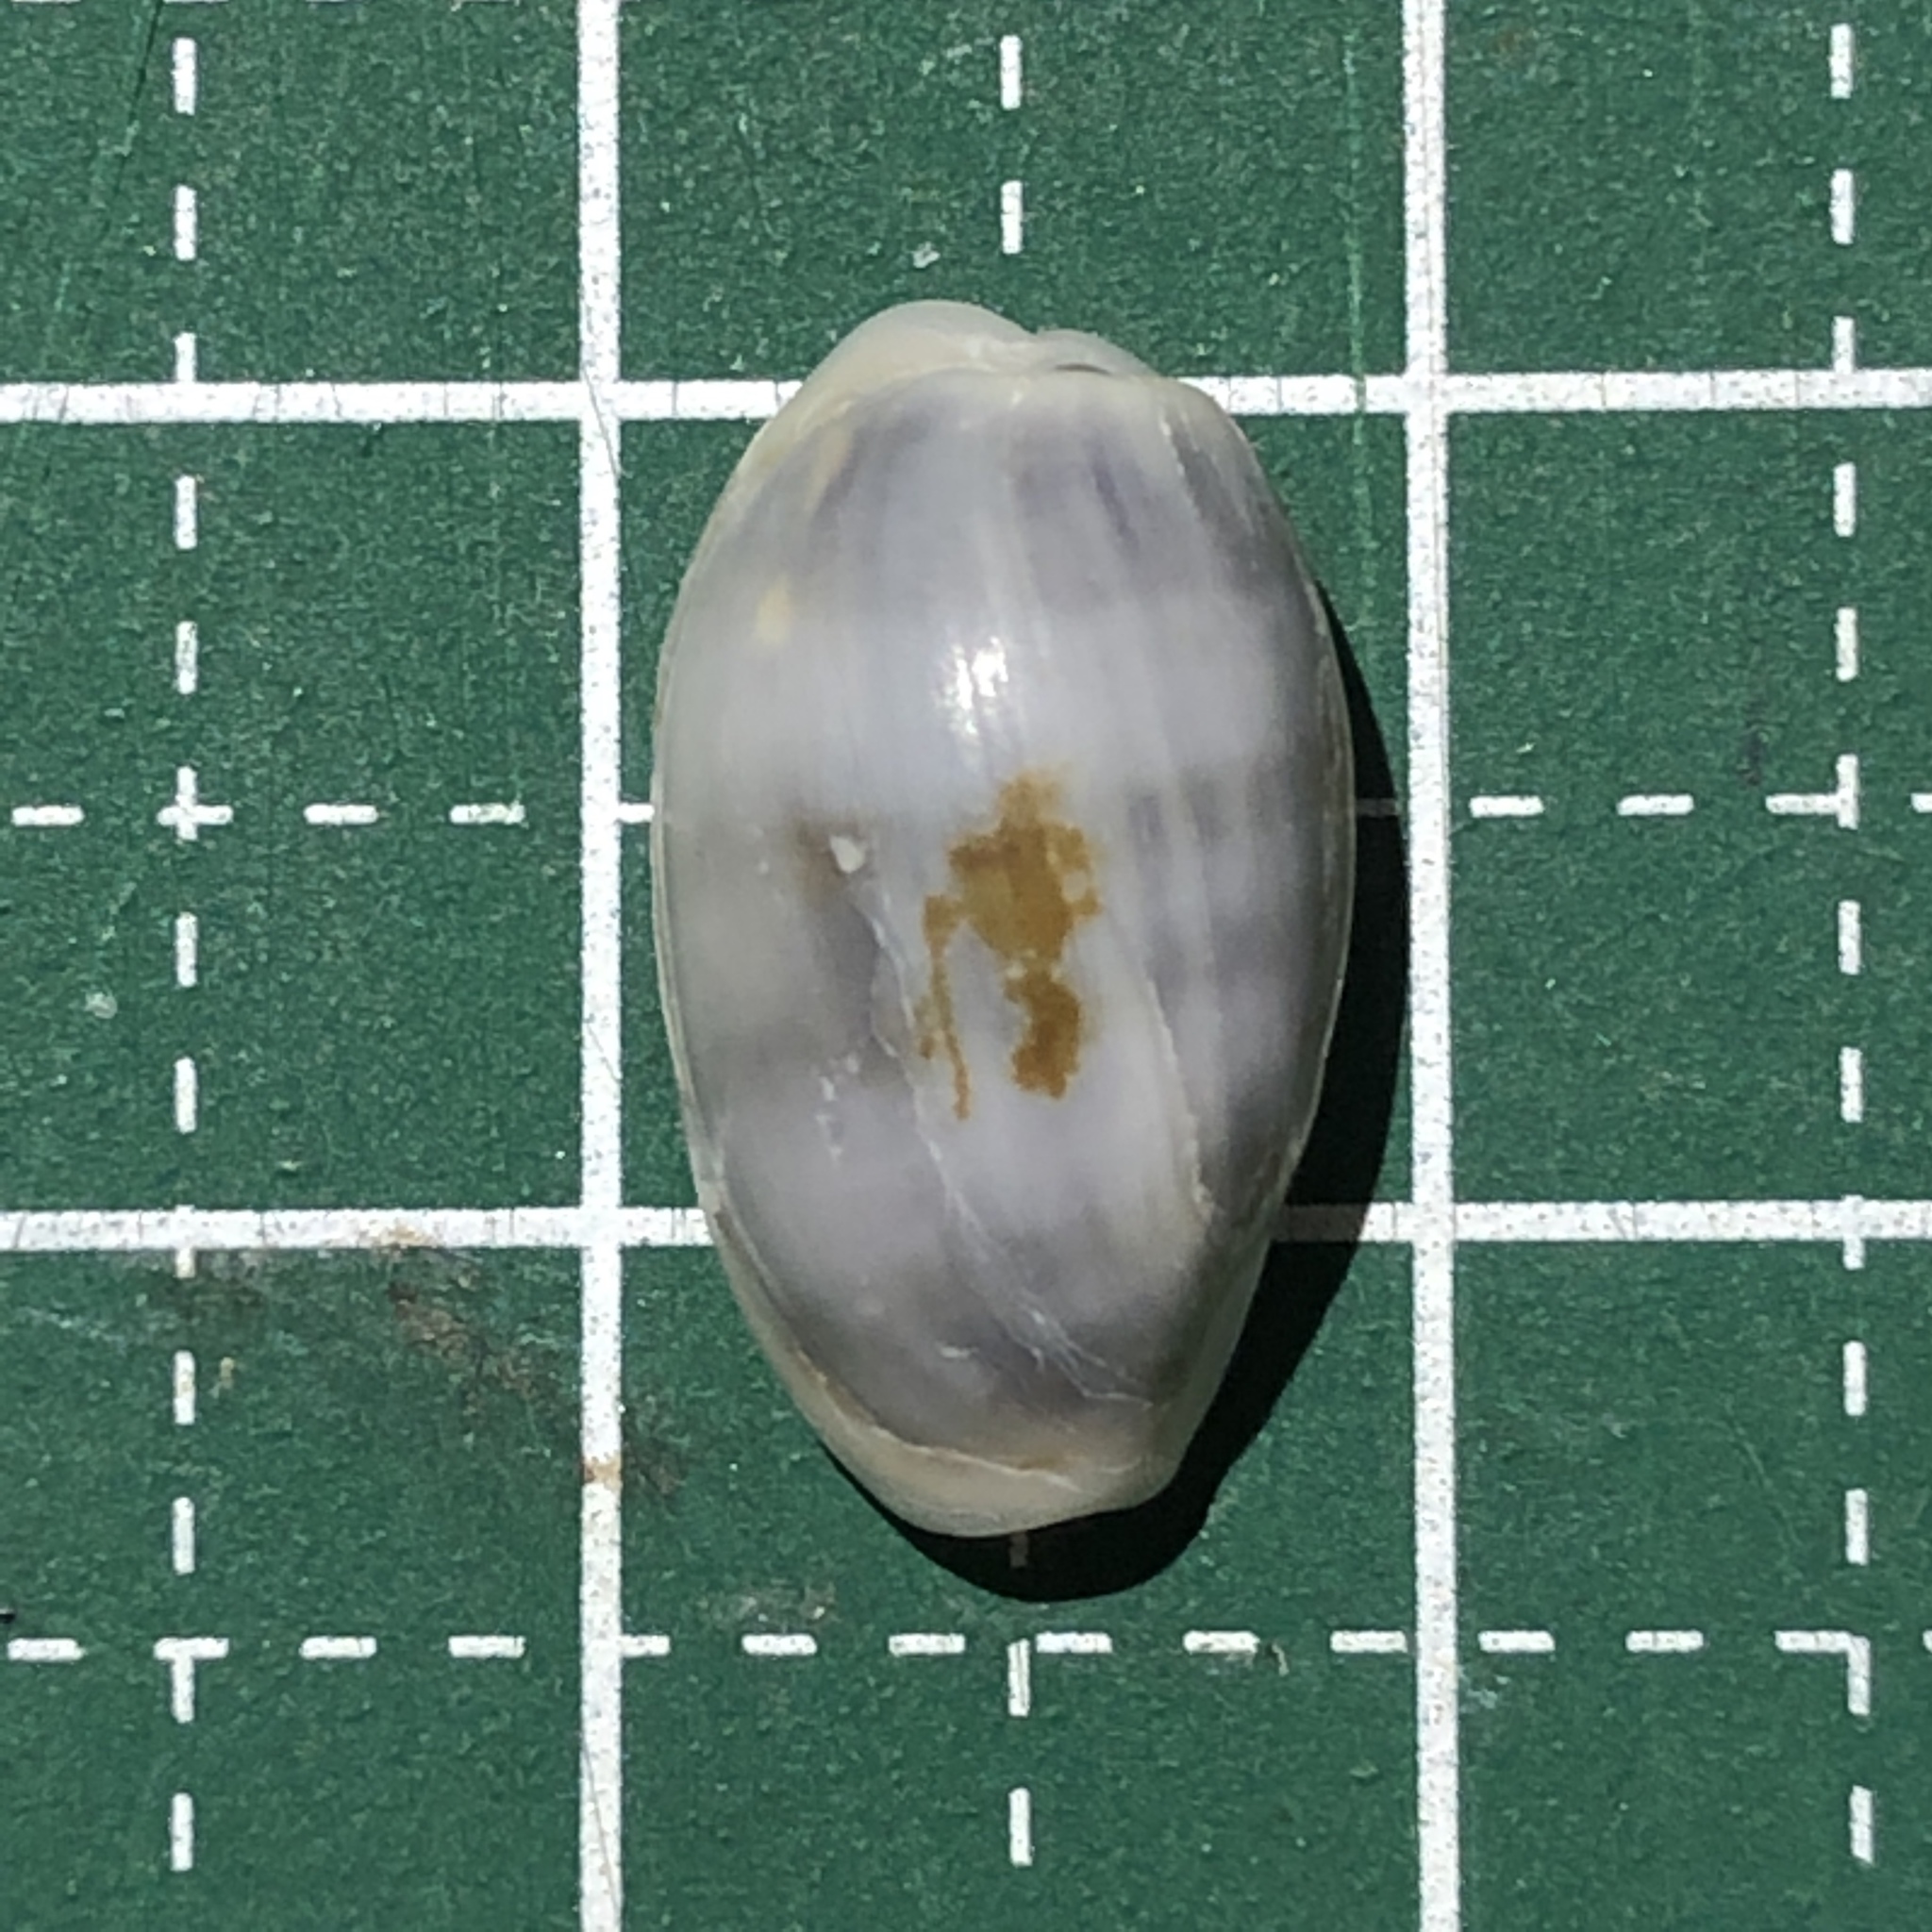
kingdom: Animalia
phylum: Mollusca
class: Gastropoda
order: Littorinimorpha
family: Cypraeidae
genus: Erronea
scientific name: Erronea errones
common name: Mistaken cowrie
